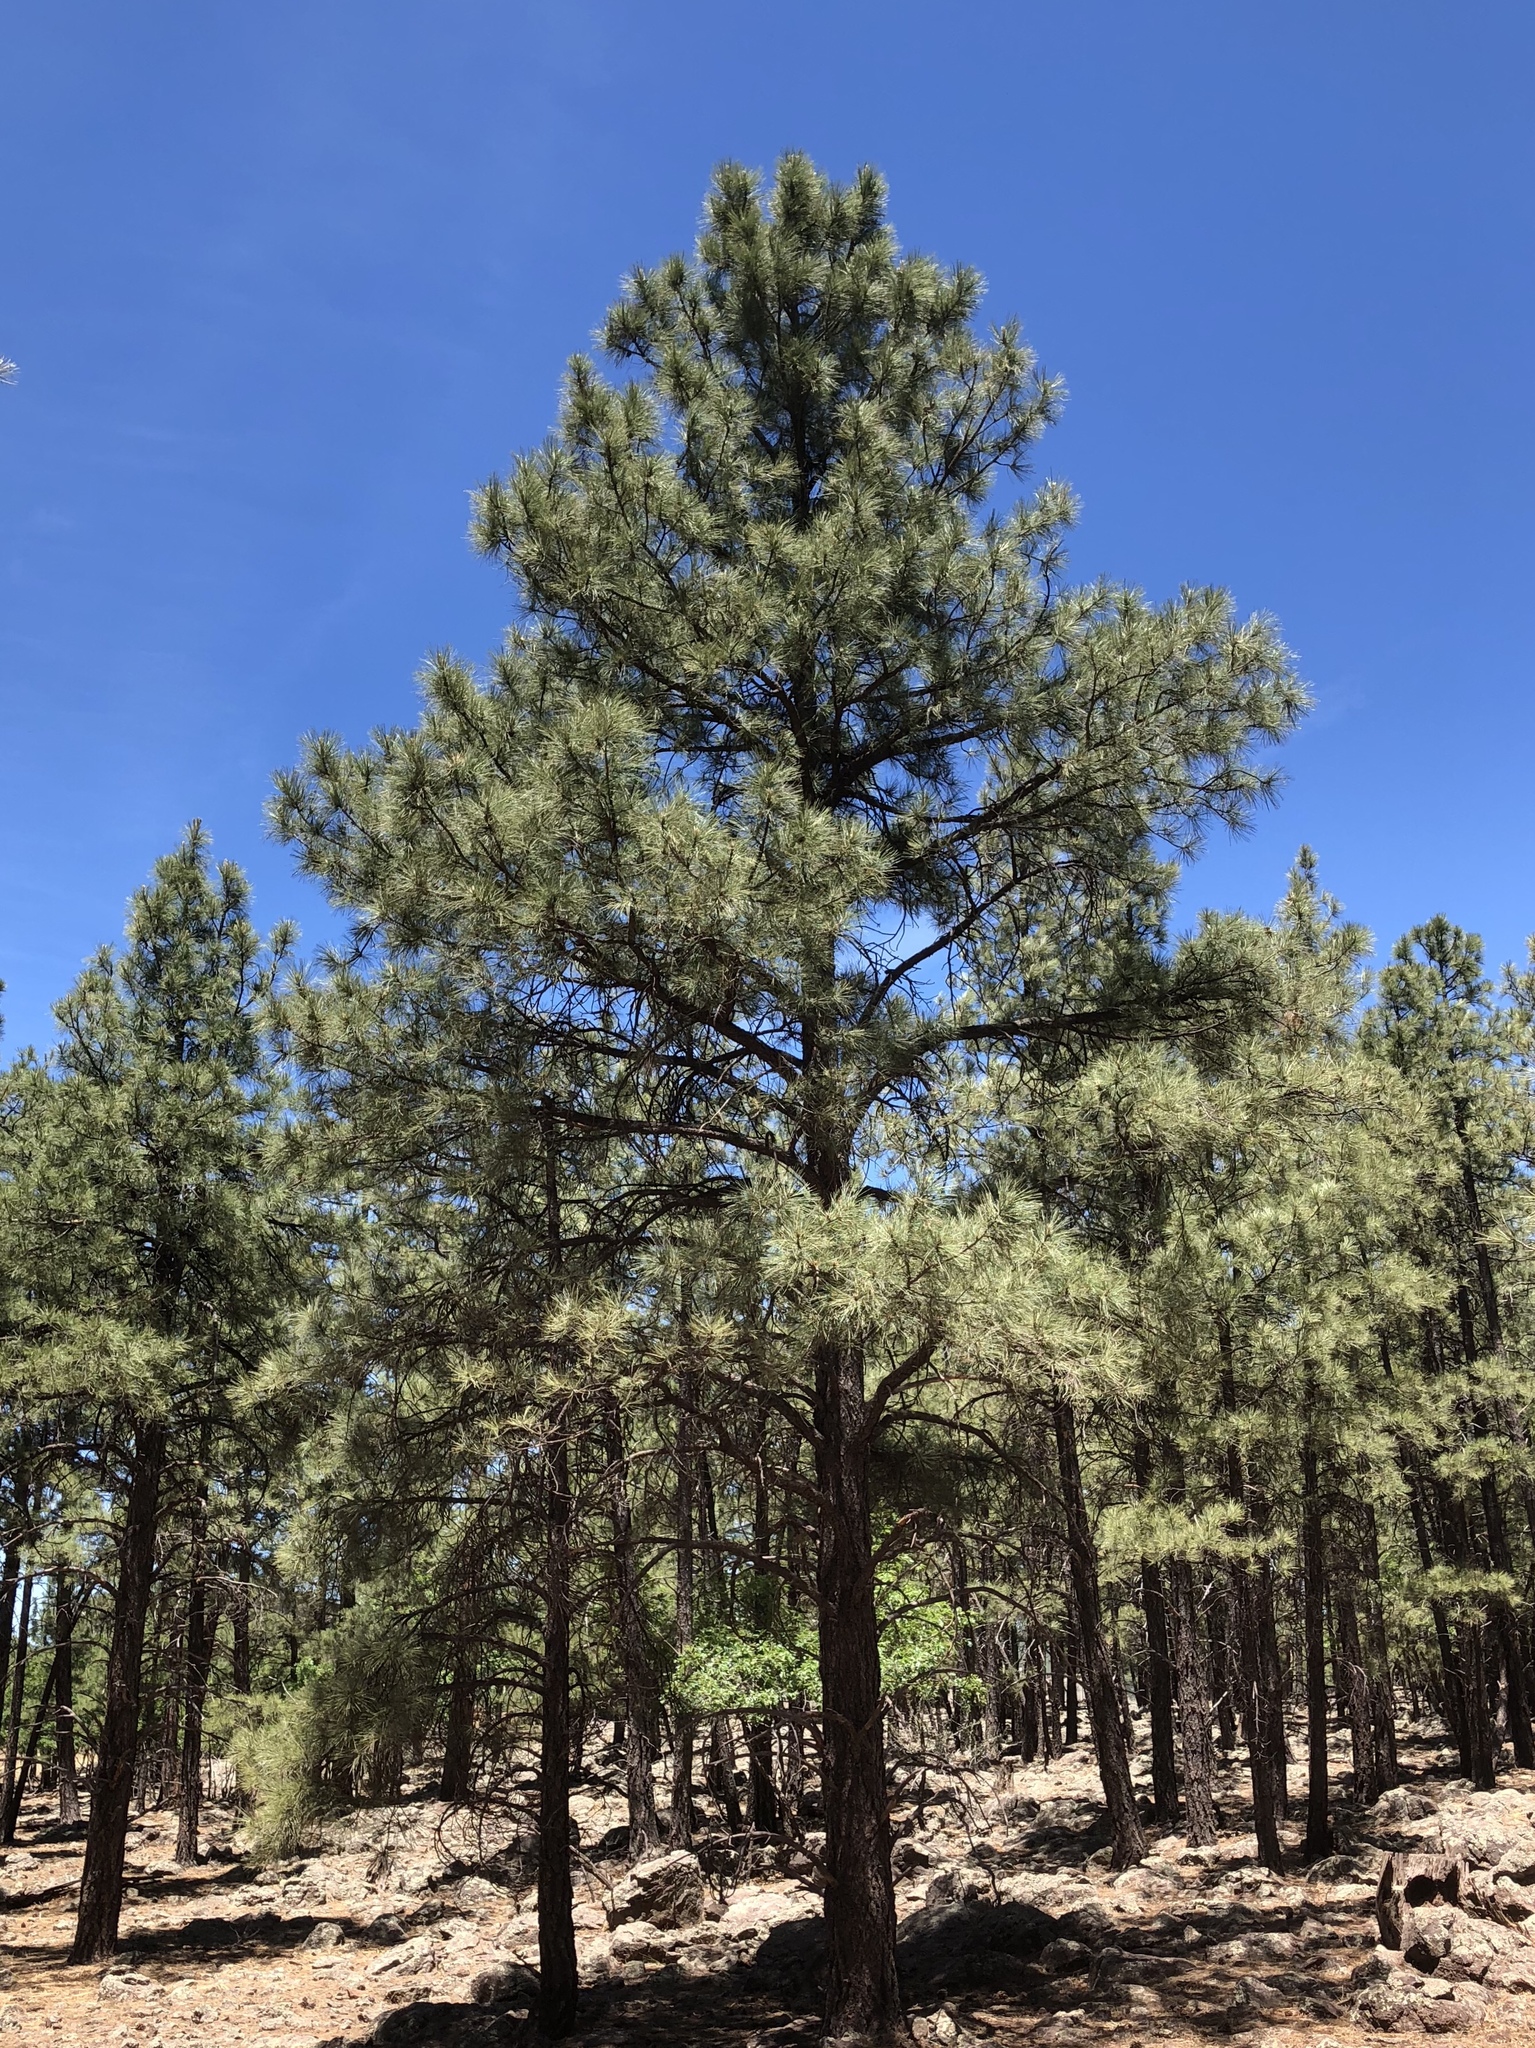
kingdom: Plantae
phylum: Tracheophyta
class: Pinopsida
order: Pinales
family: Pinaceae
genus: Pinus
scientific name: Pinus ponderosa
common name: Western yellow-pine
